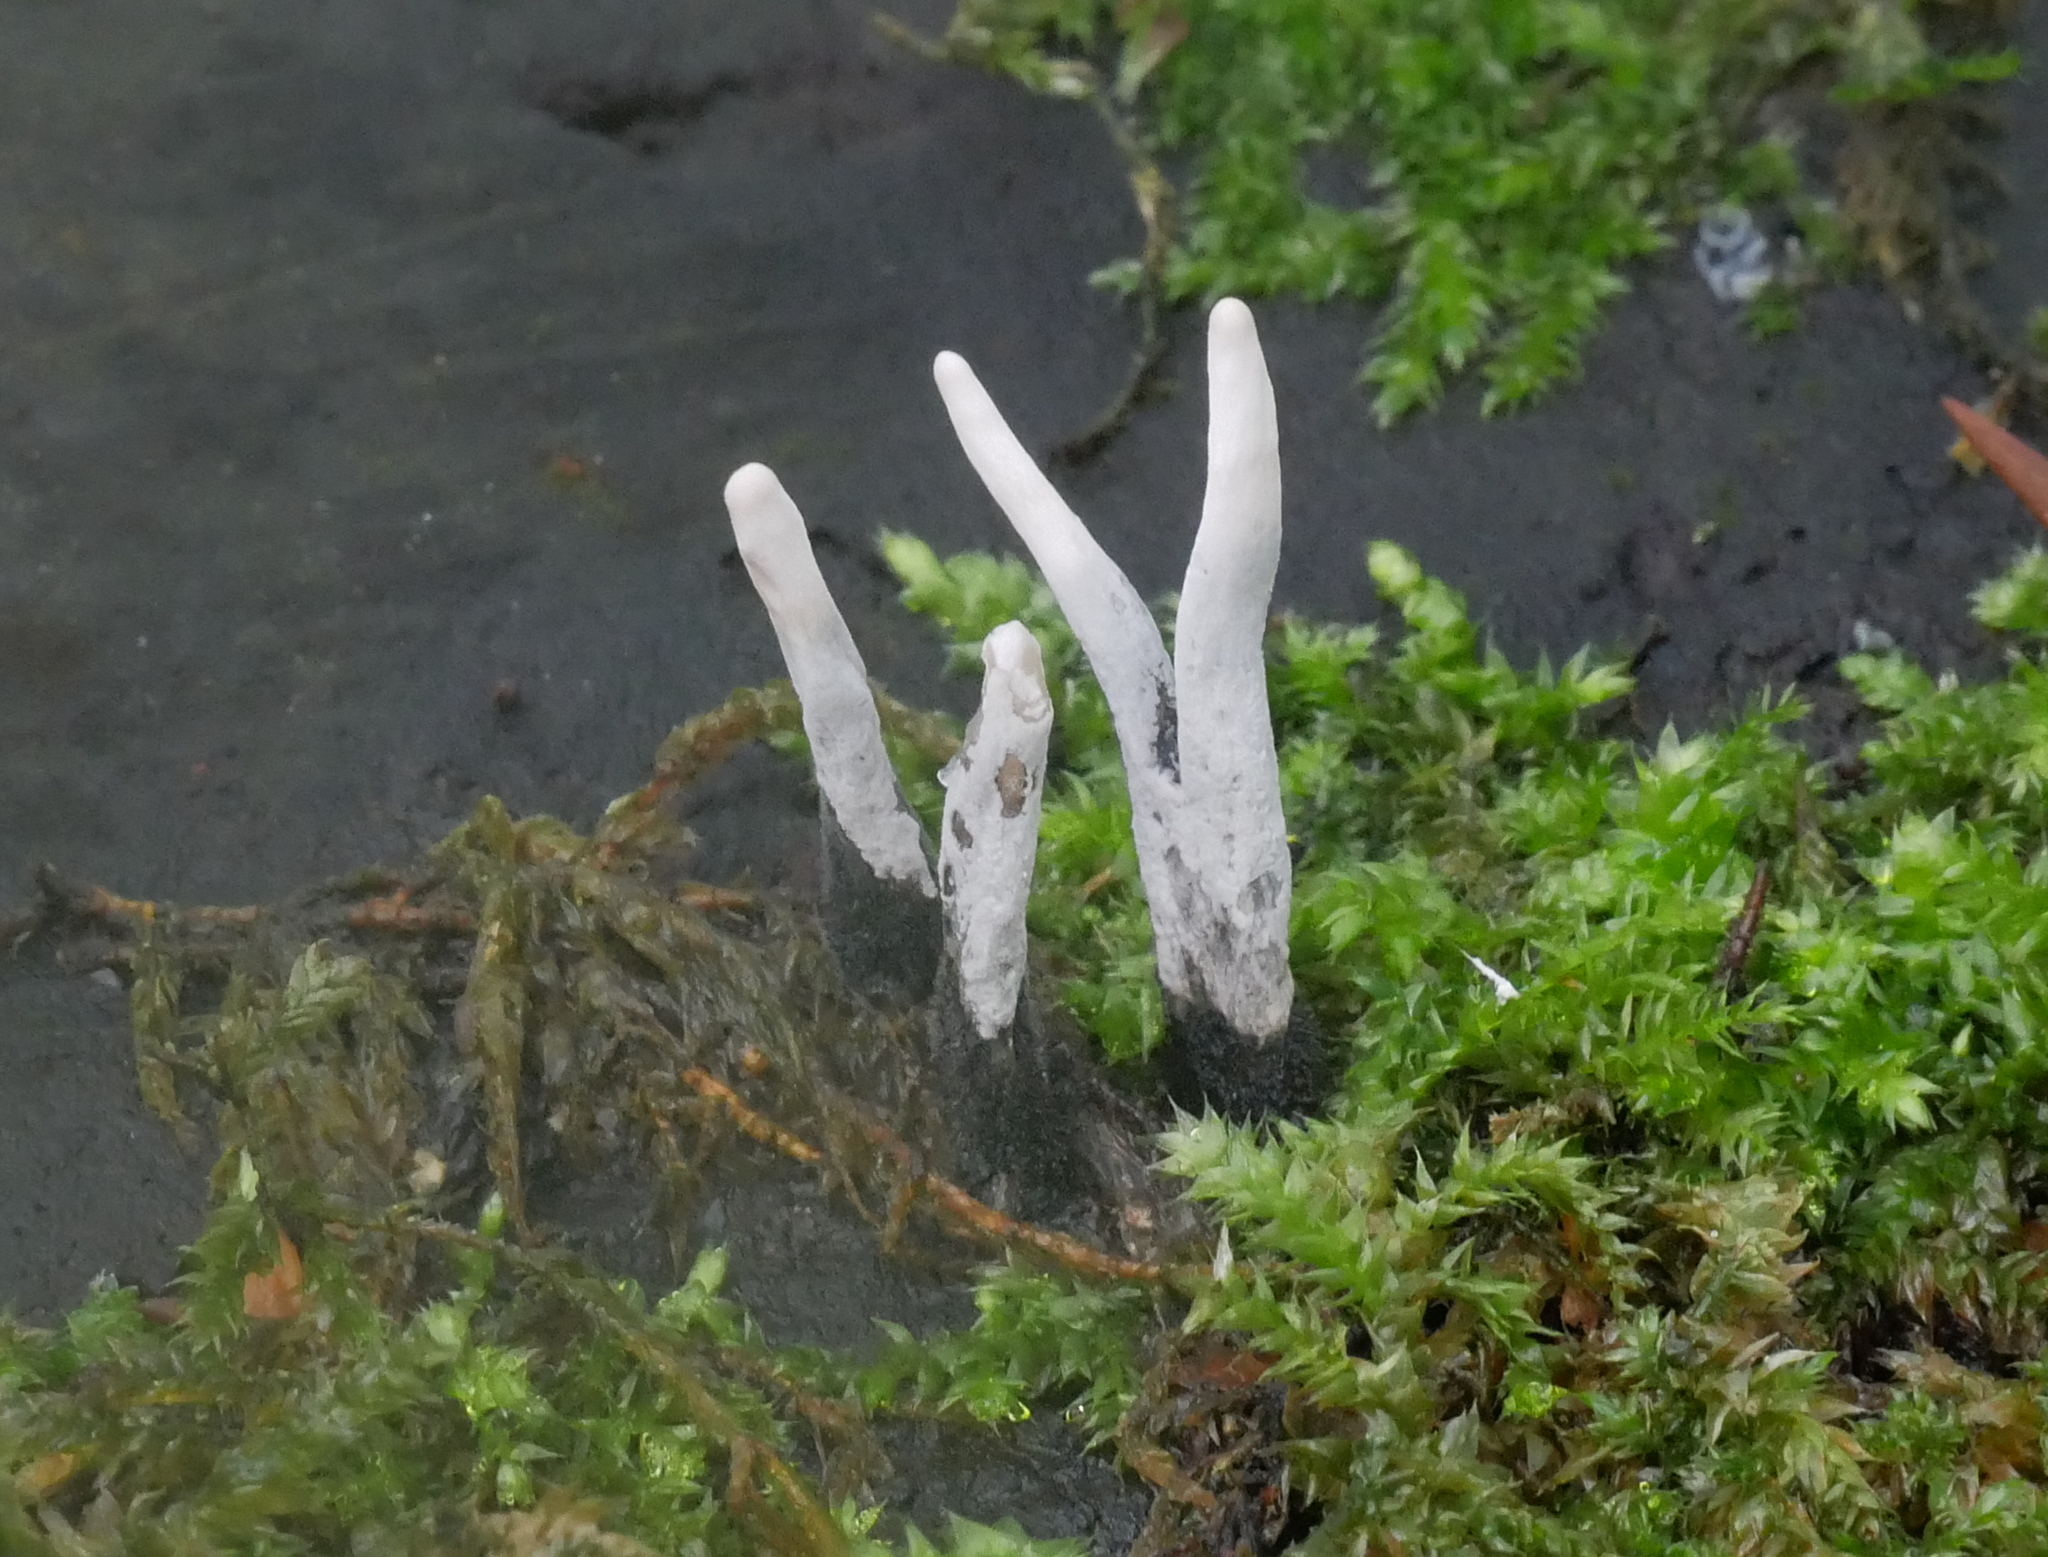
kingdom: Fungi
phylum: Ascomycota
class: Sordariomycetes
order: Xylariales
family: Xylariaceae
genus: Xylaria
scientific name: Xylaria hypoxylon
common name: Candle-snuff fungus
